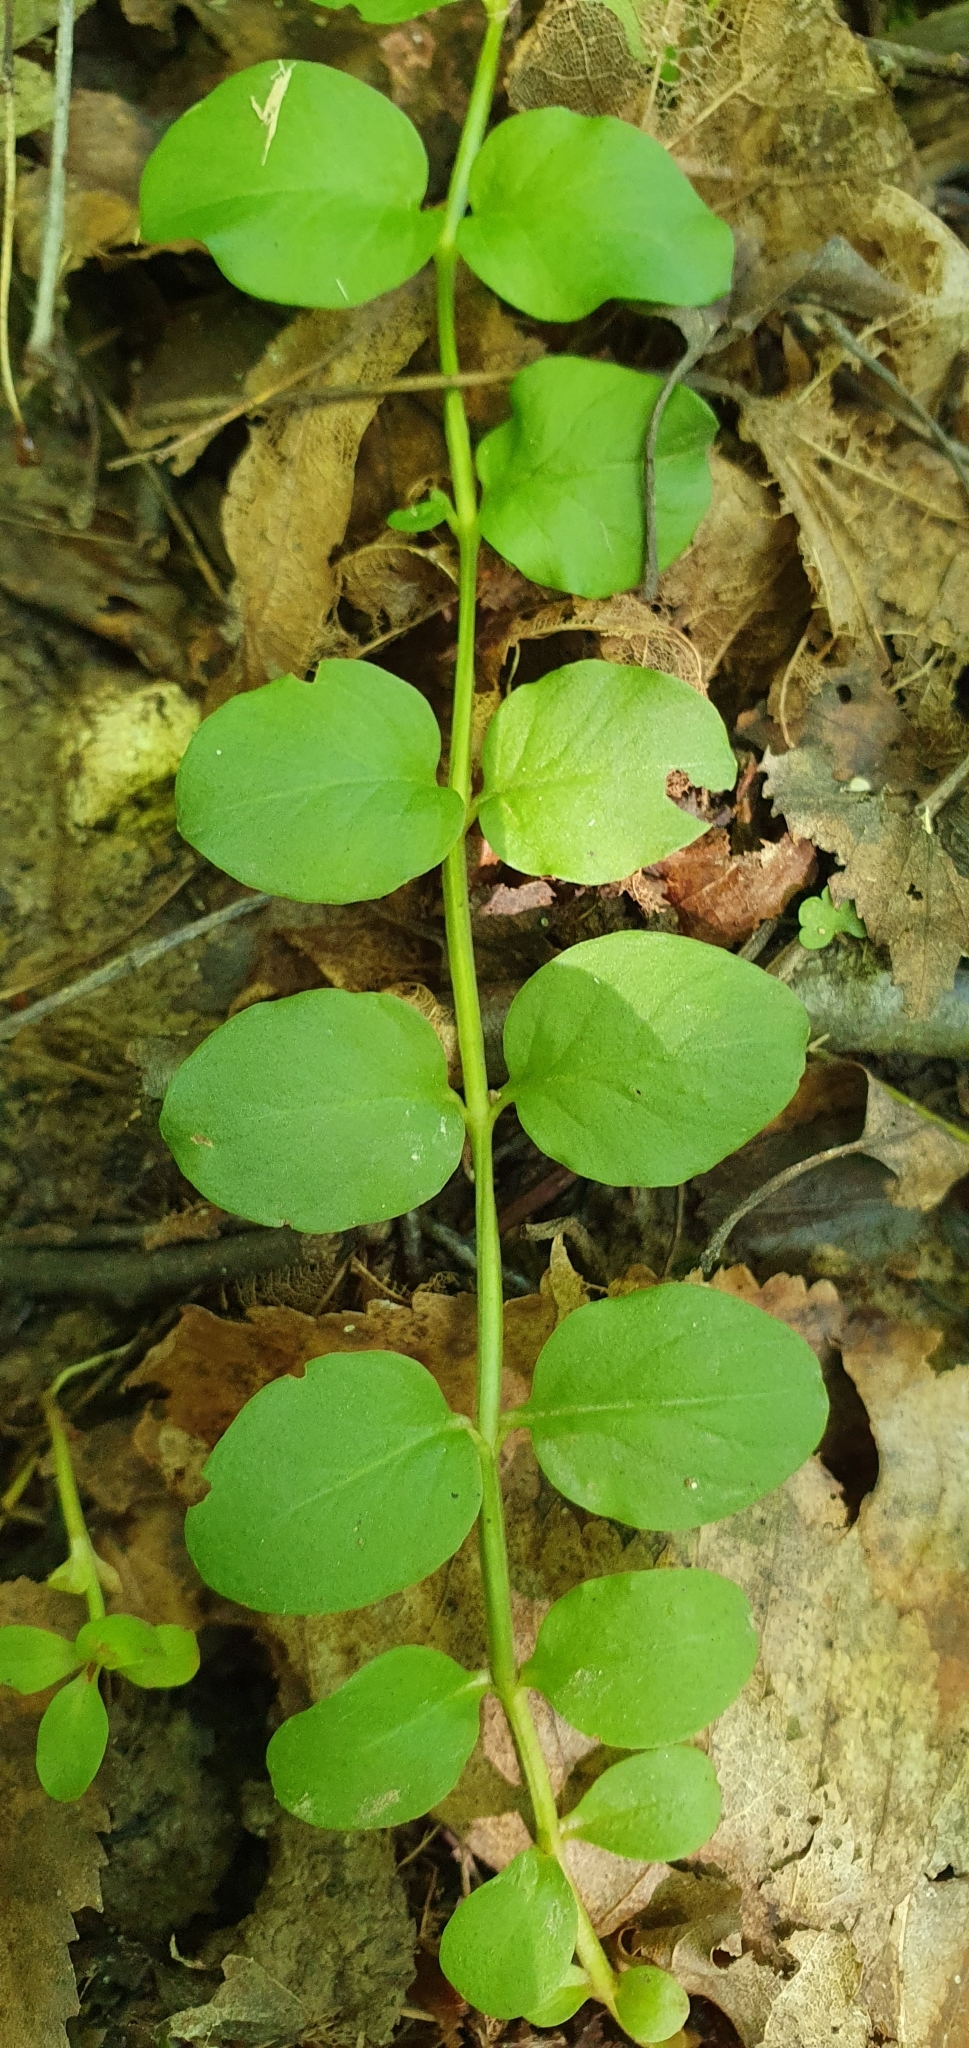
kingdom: Plantae
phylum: Tracheophyta
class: Magnoliopsida
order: Ericales
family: Primulaceae
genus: Lysimachia
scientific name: Lysimachia nummularia
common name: Moneywort
